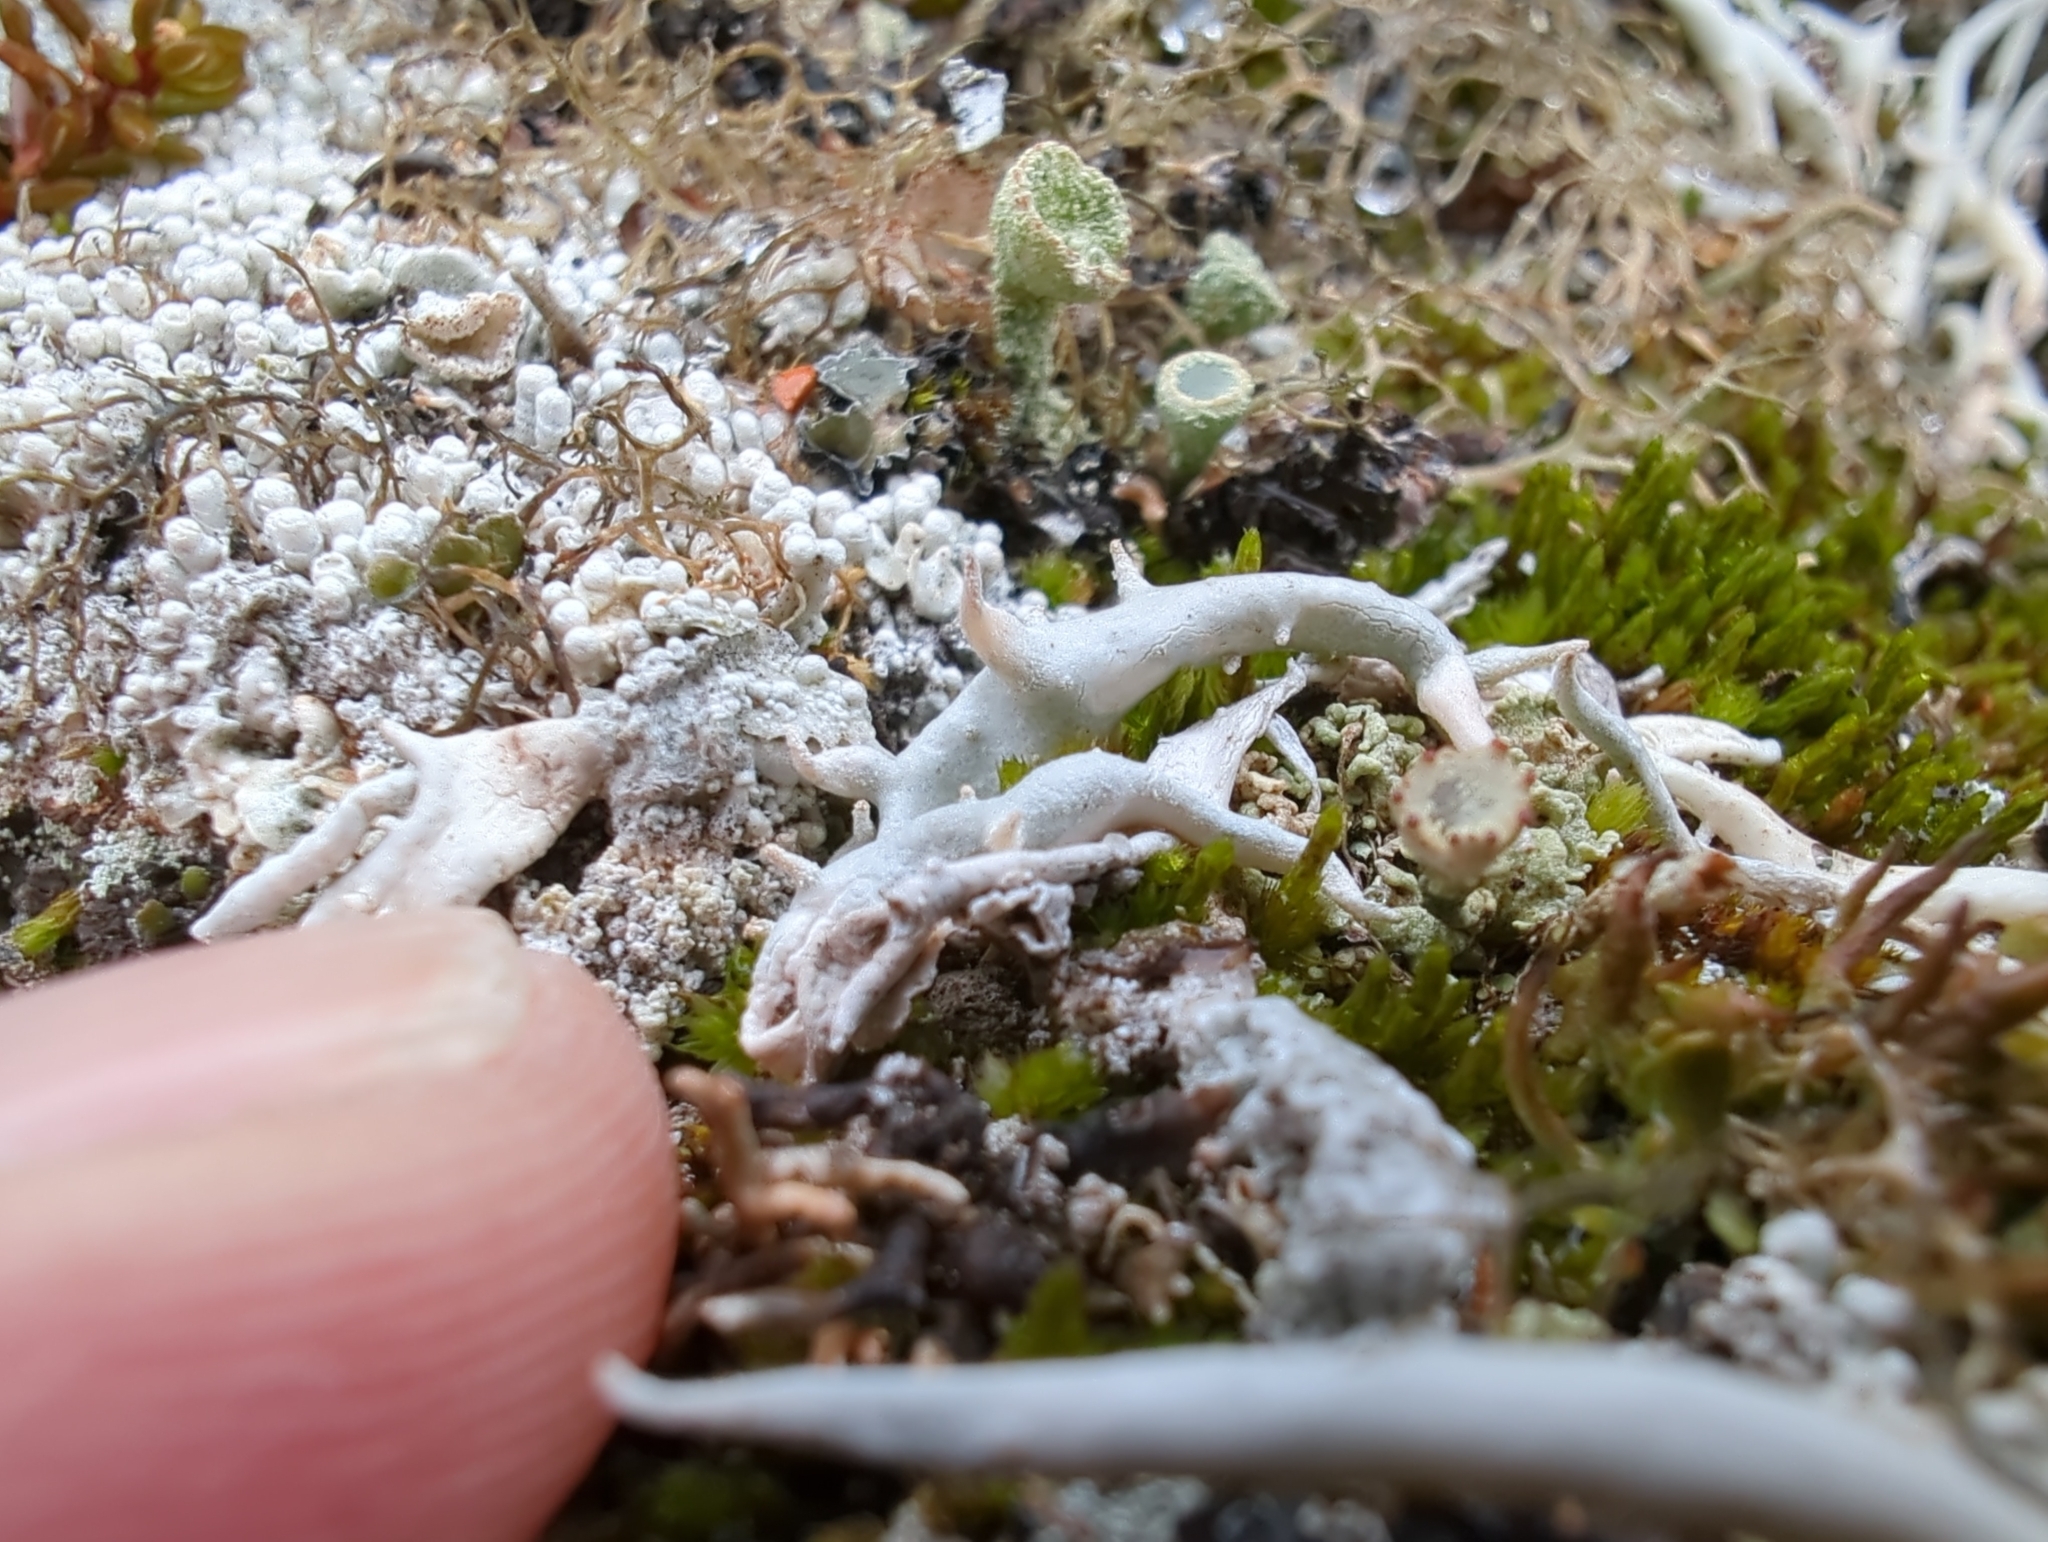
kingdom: Fungi
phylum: Ascomycota
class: Lecanoromycetes
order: Pertusariales
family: Icmadophilaceae
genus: Thamnolia
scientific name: Thamnolia vermicularis
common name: Whiteworm lichen
